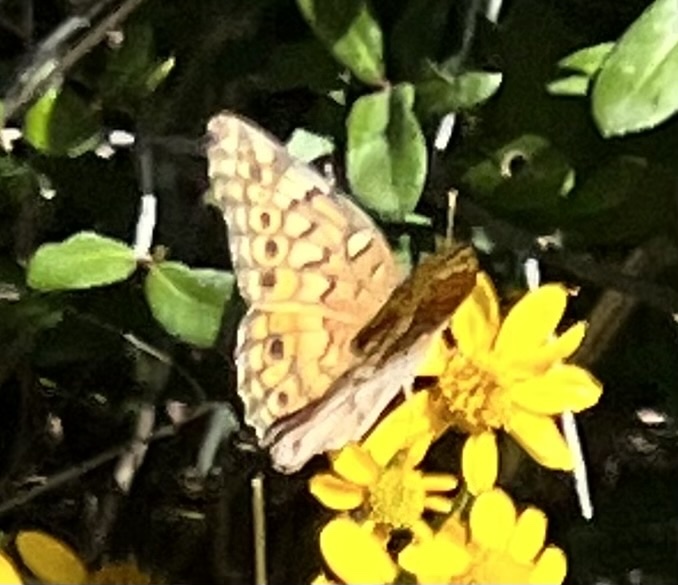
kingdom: Animalia
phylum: Arthropoda
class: Insecta
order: Lepidoptera
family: Nymphalidae
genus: Euptoieta
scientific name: Euptoieta claudia
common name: Variegated fritillary
